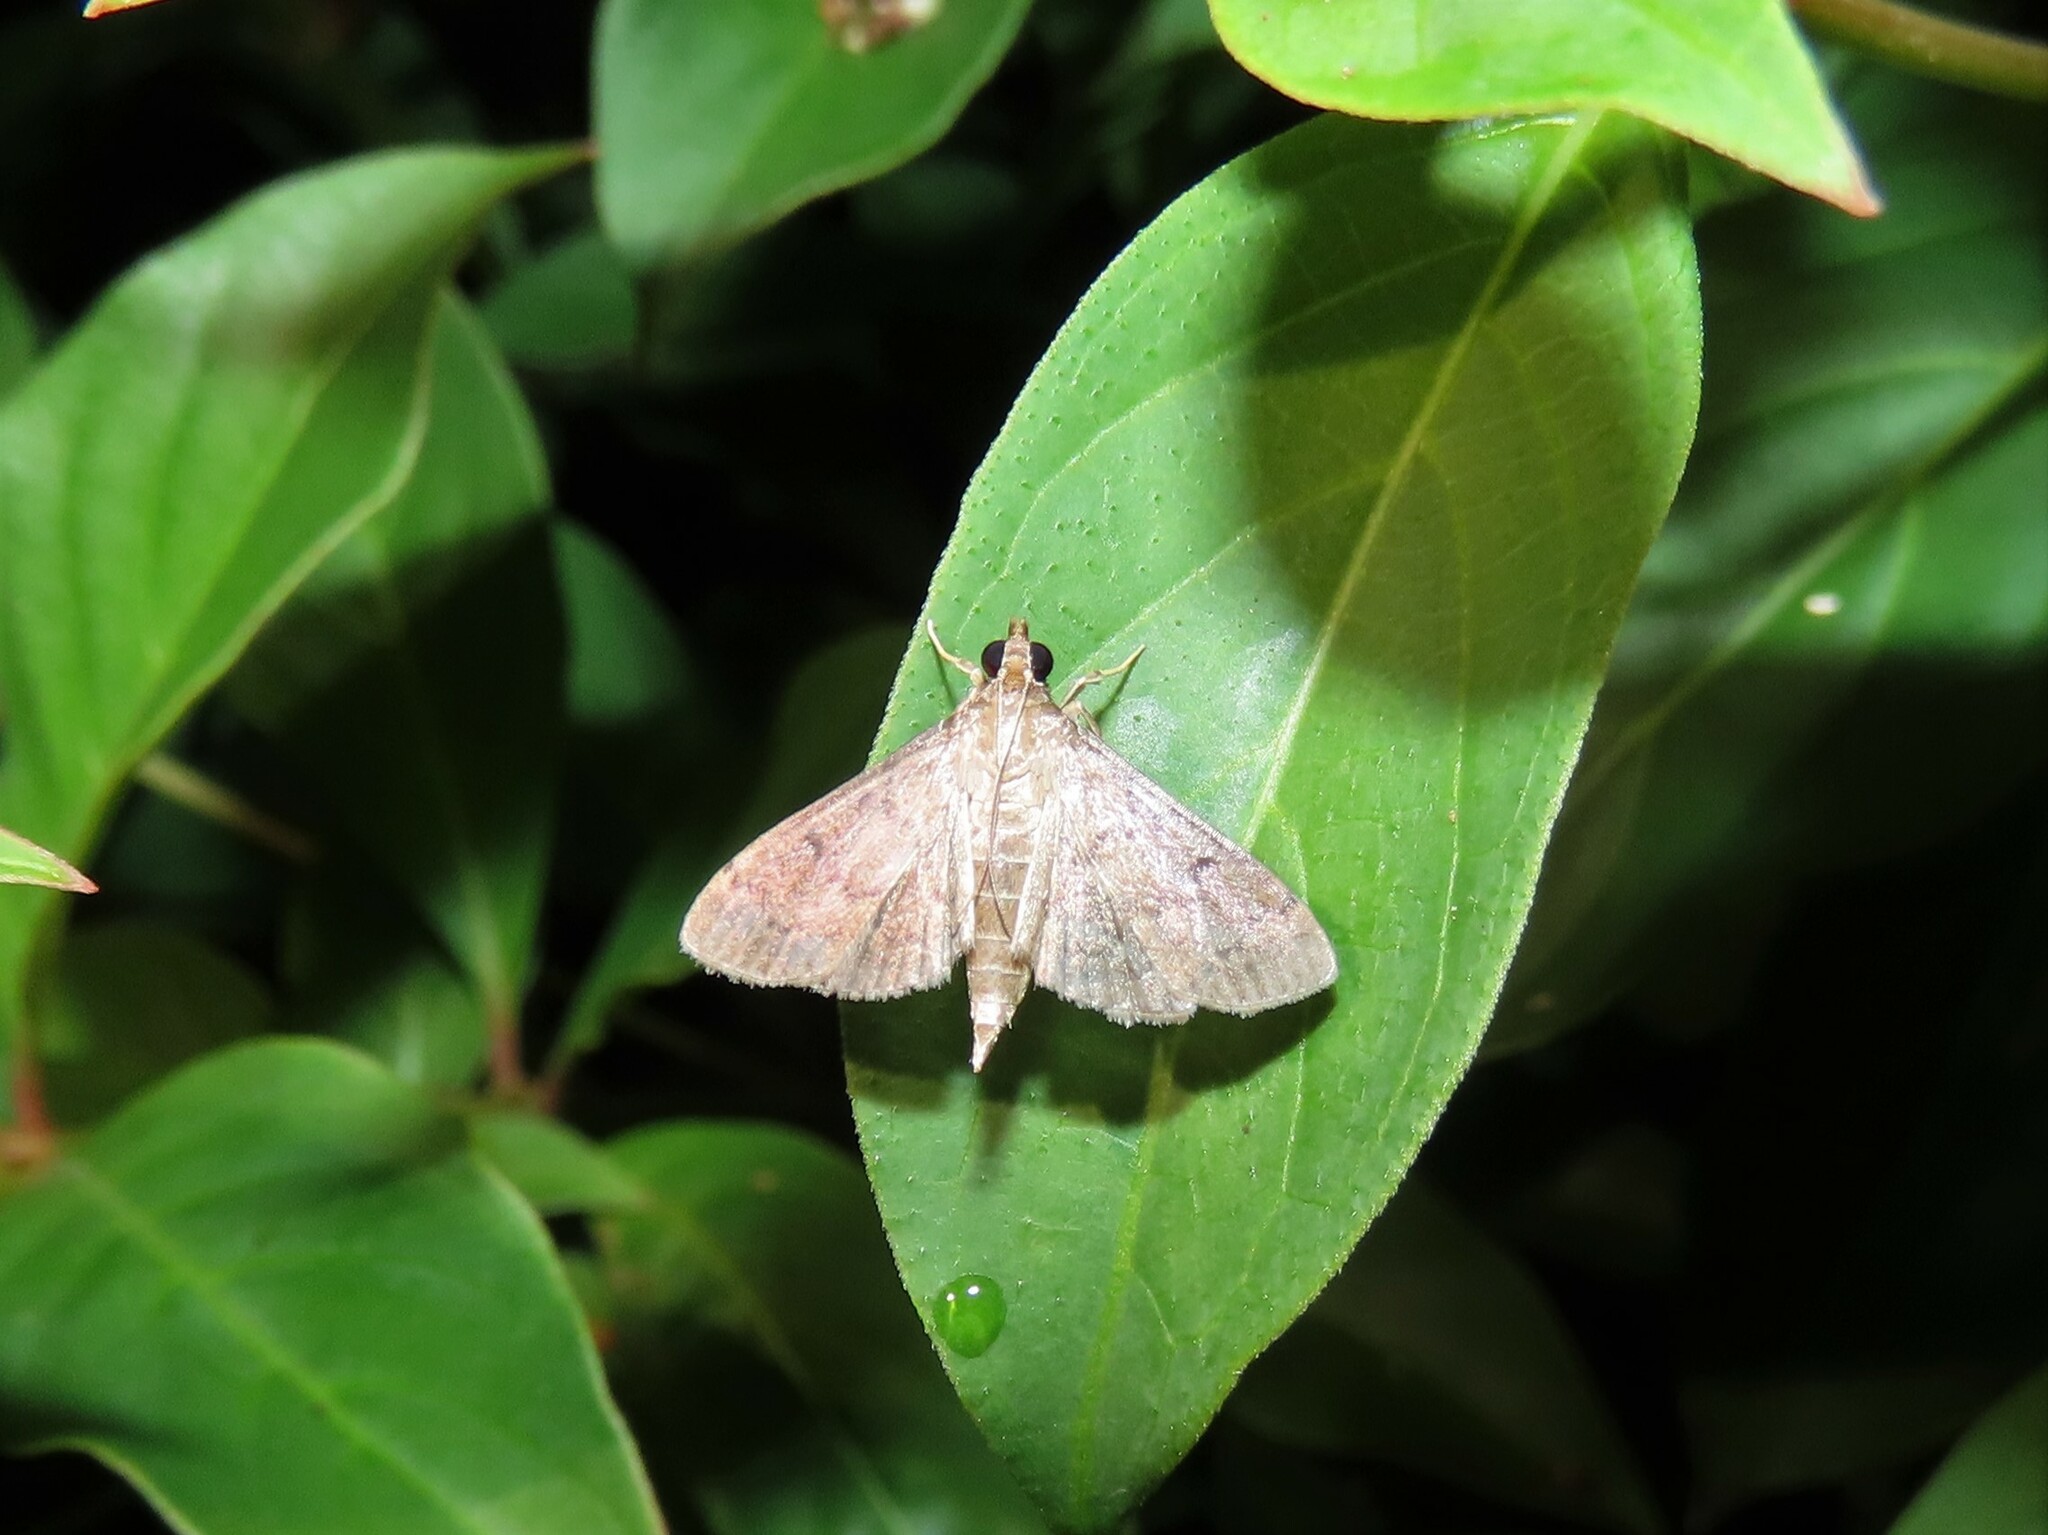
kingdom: Animalia
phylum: Arthropoda
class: Insecta
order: Lepidoptera
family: Crambidae
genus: Herpetogramma
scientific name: Herpetogramma phaeopteralis
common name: Dusky herpetogramma moth
